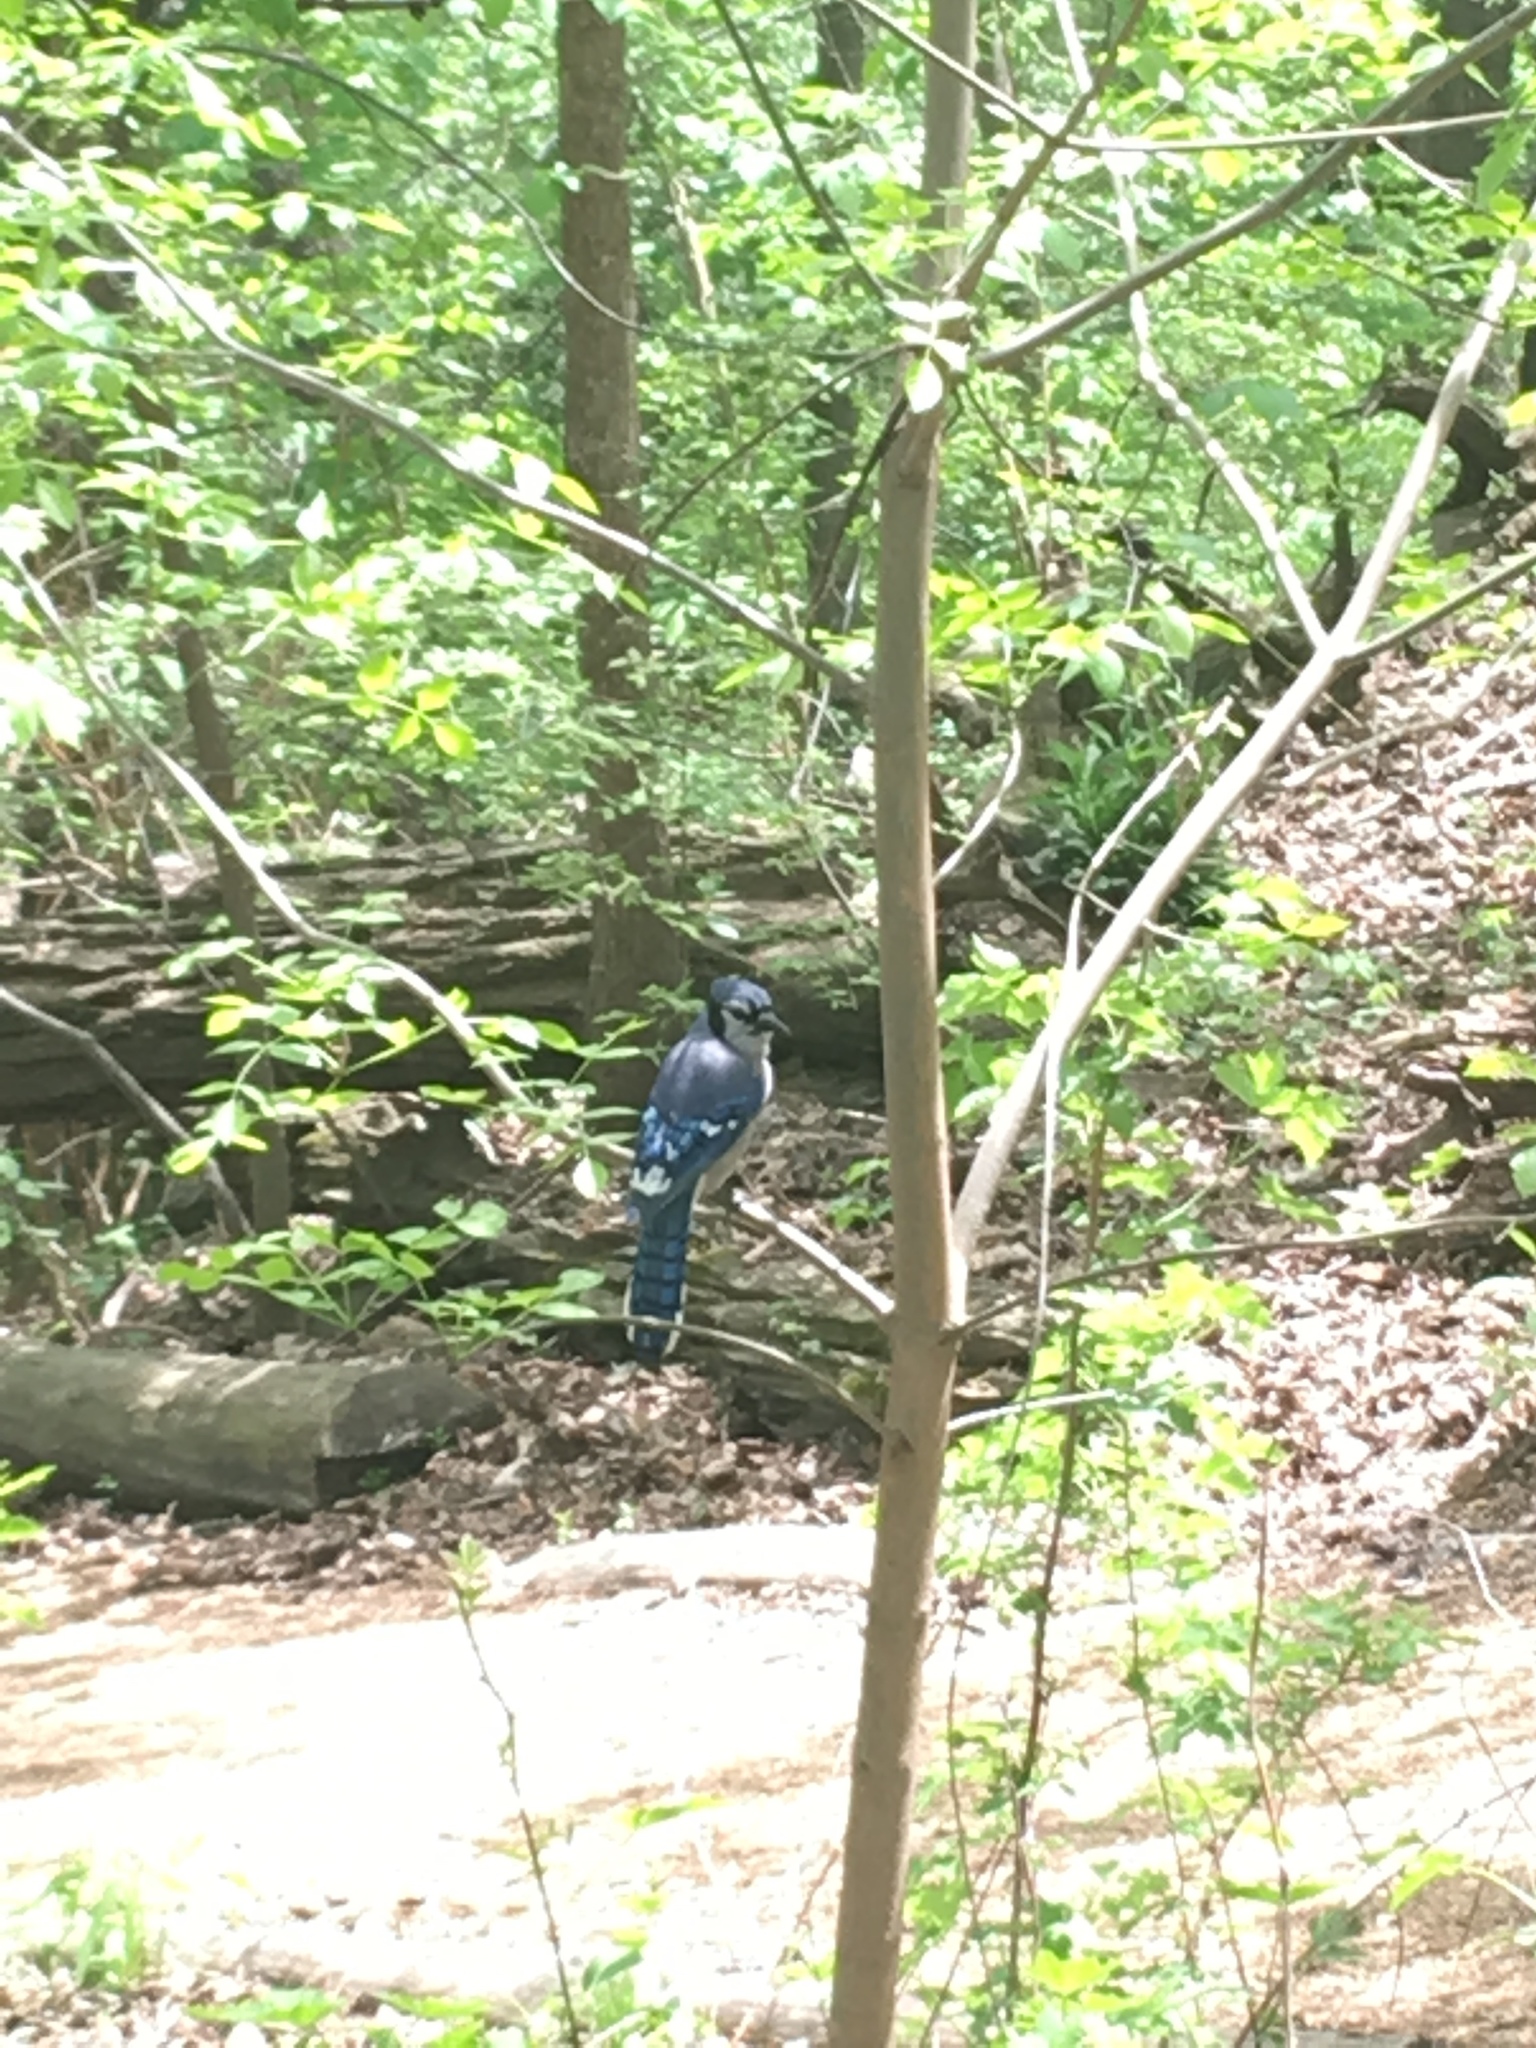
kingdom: Animalia
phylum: Chordata
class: Aves
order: Passeriformes
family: Corvidae
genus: Cyanocitta
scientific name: Cyanocitta cristata
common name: Blue jay
